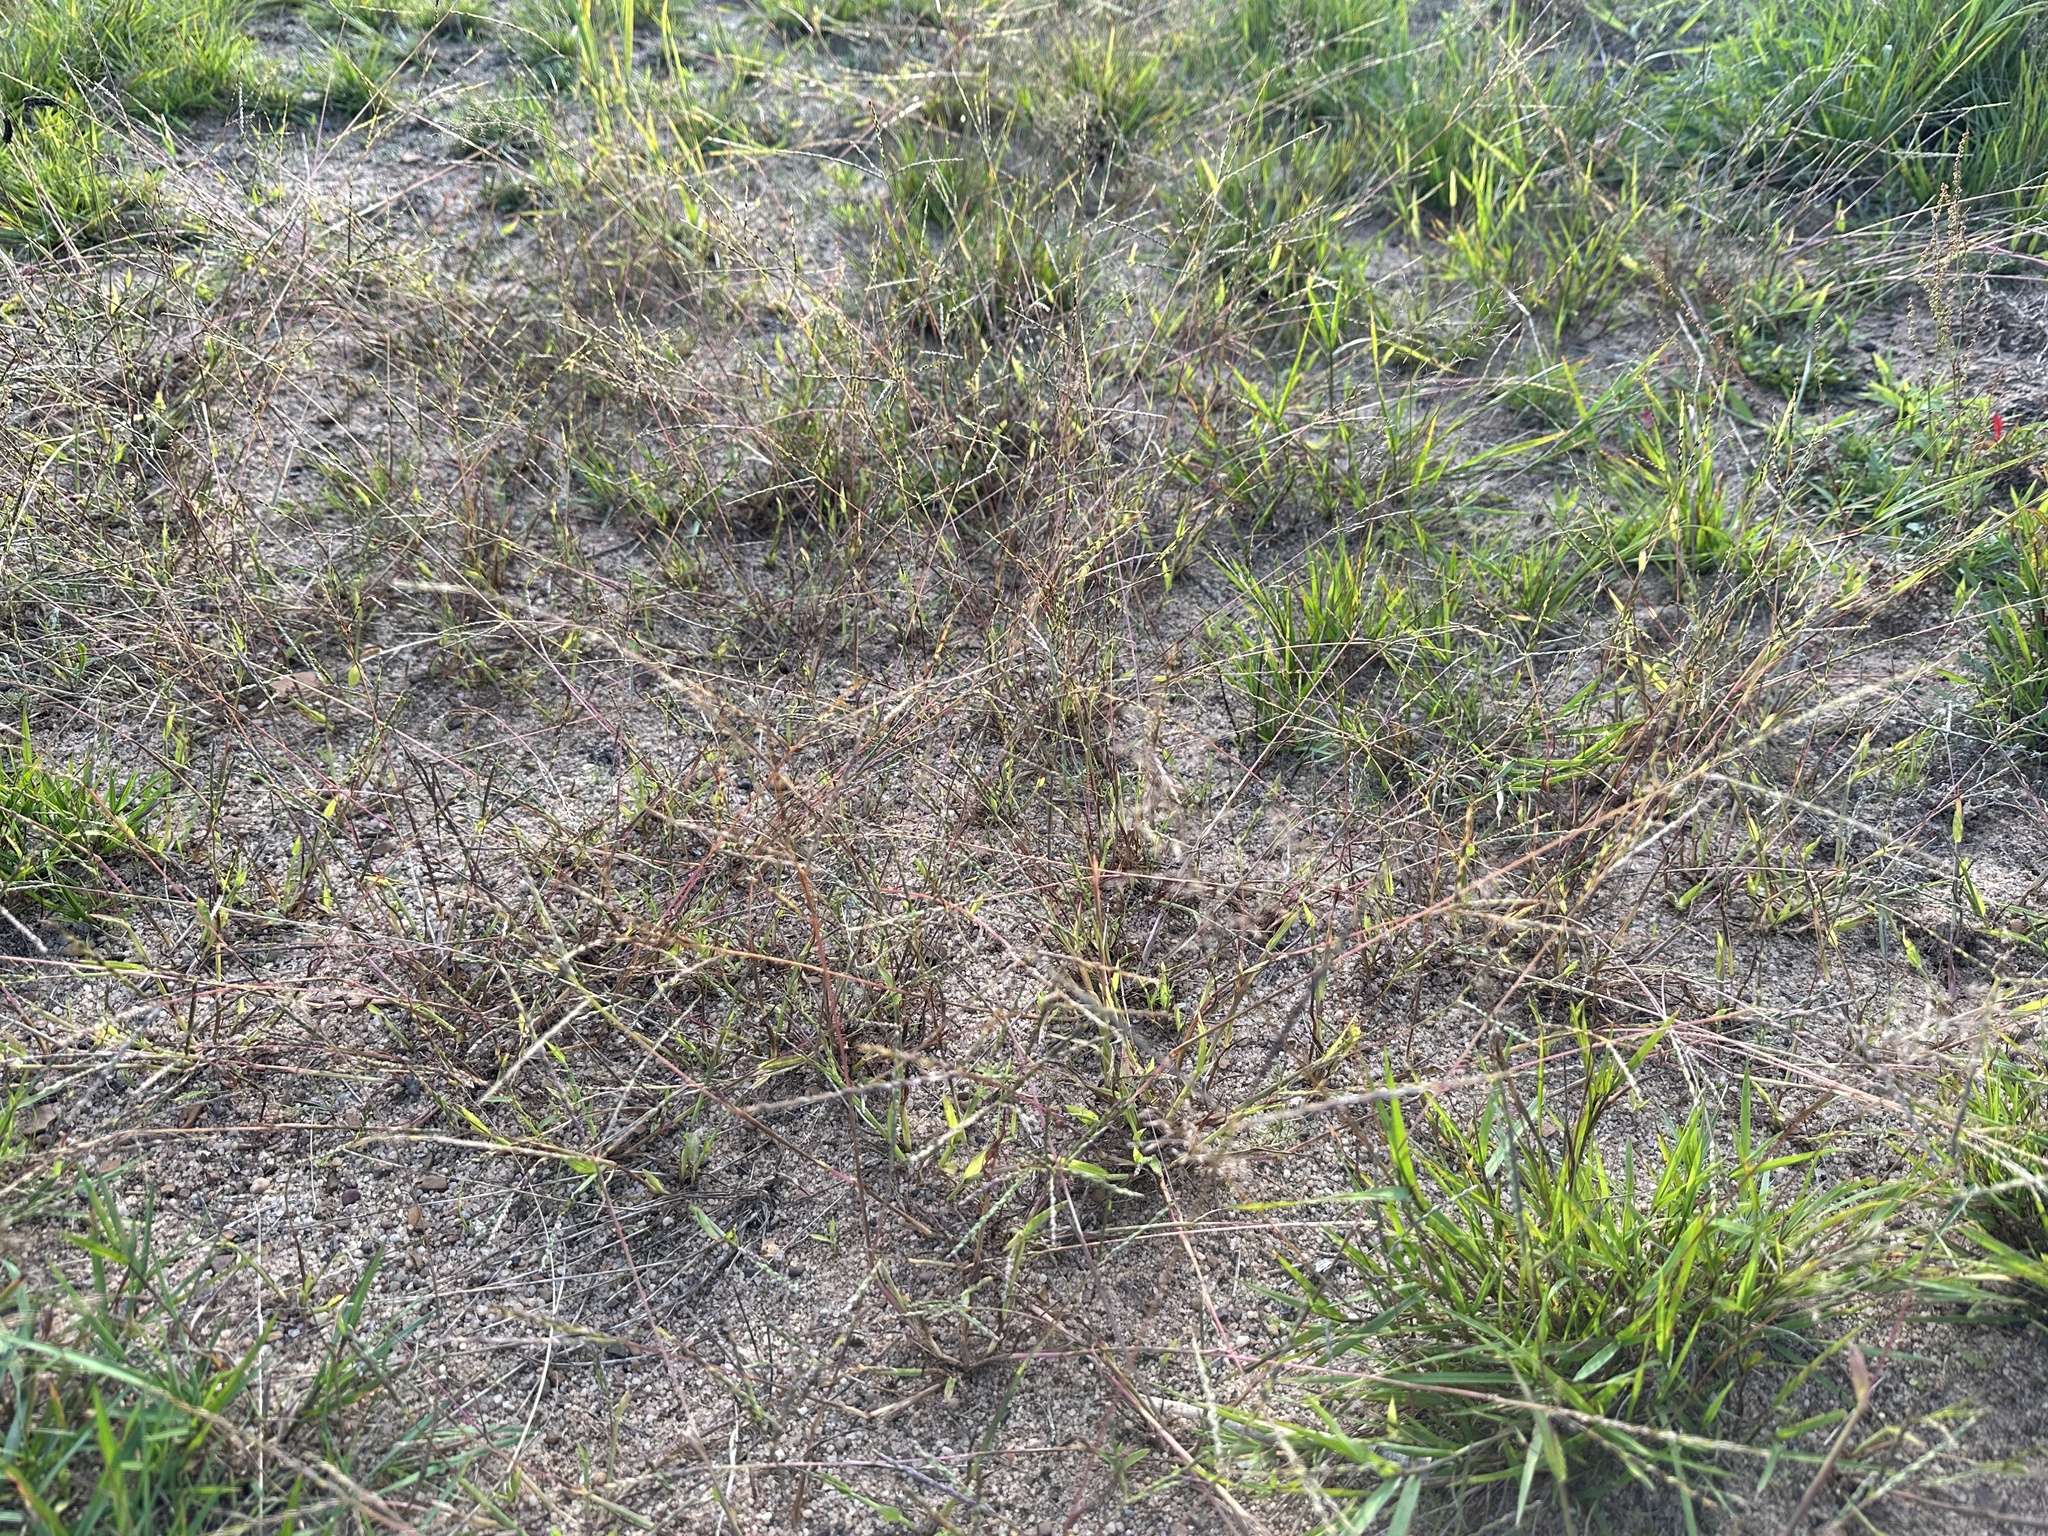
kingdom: Plantae
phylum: Tracheophyta
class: Liliopsida
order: Poales
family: Poaceae
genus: Digitaria
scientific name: Digitaria sanguinalis
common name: Hairy crabgrass
